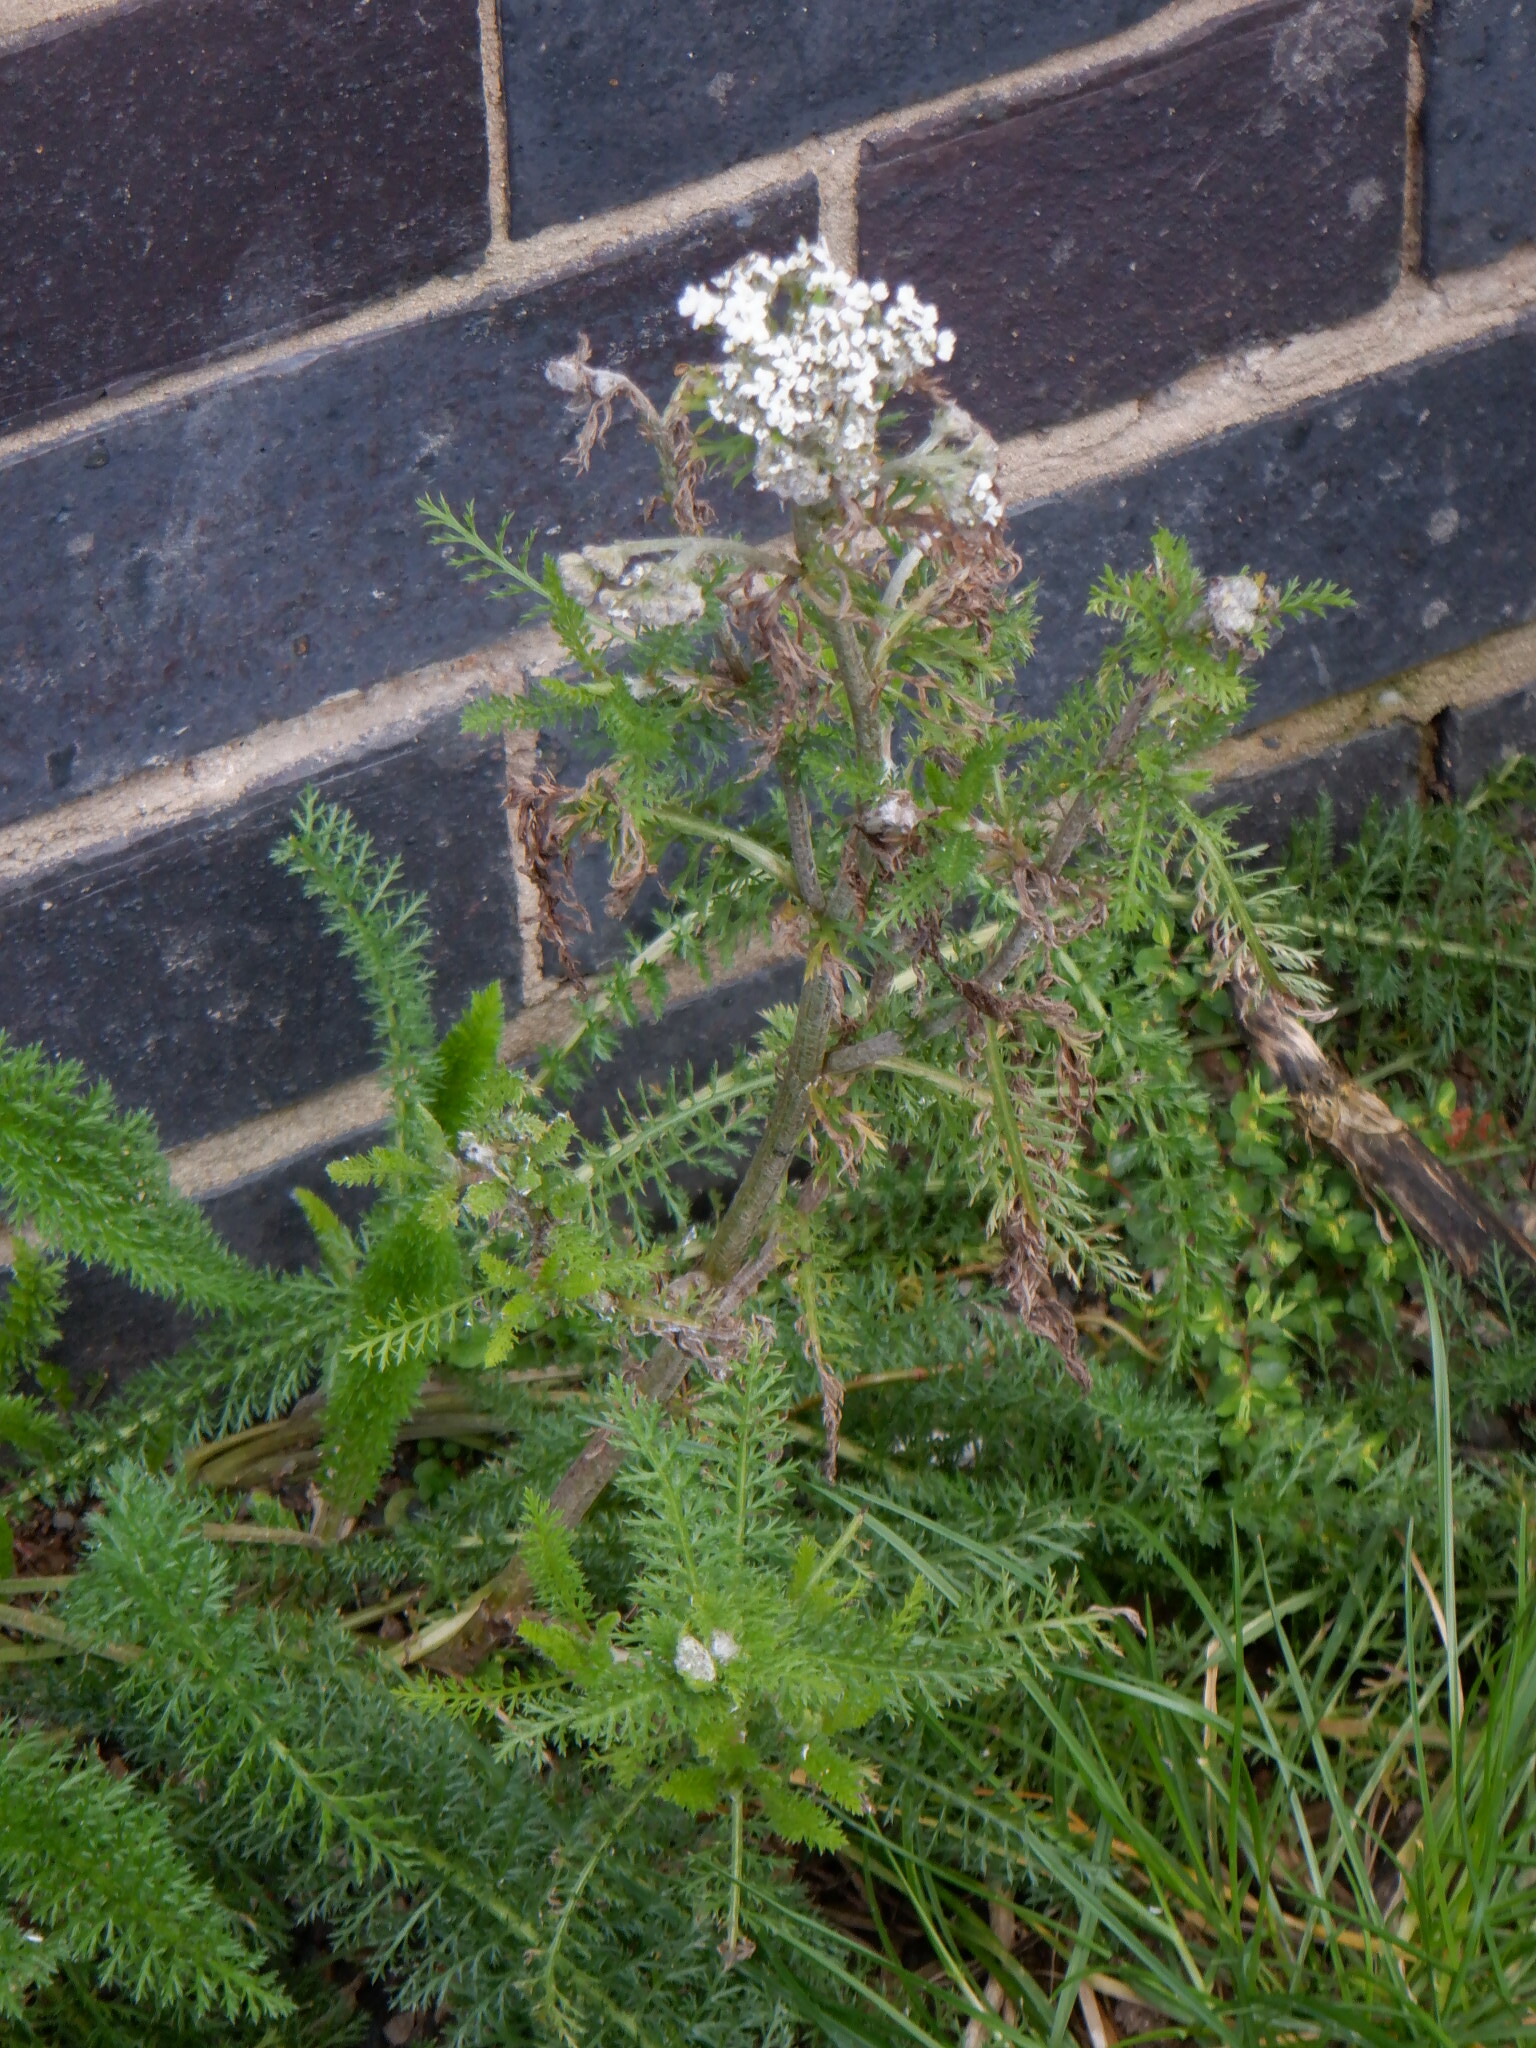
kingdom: Plantae
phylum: Tracheophyta
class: Magnoliopsida
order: Asterales
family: Asteraceae
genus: Achillea
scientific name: Achillea millefolium
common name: Yarrow
